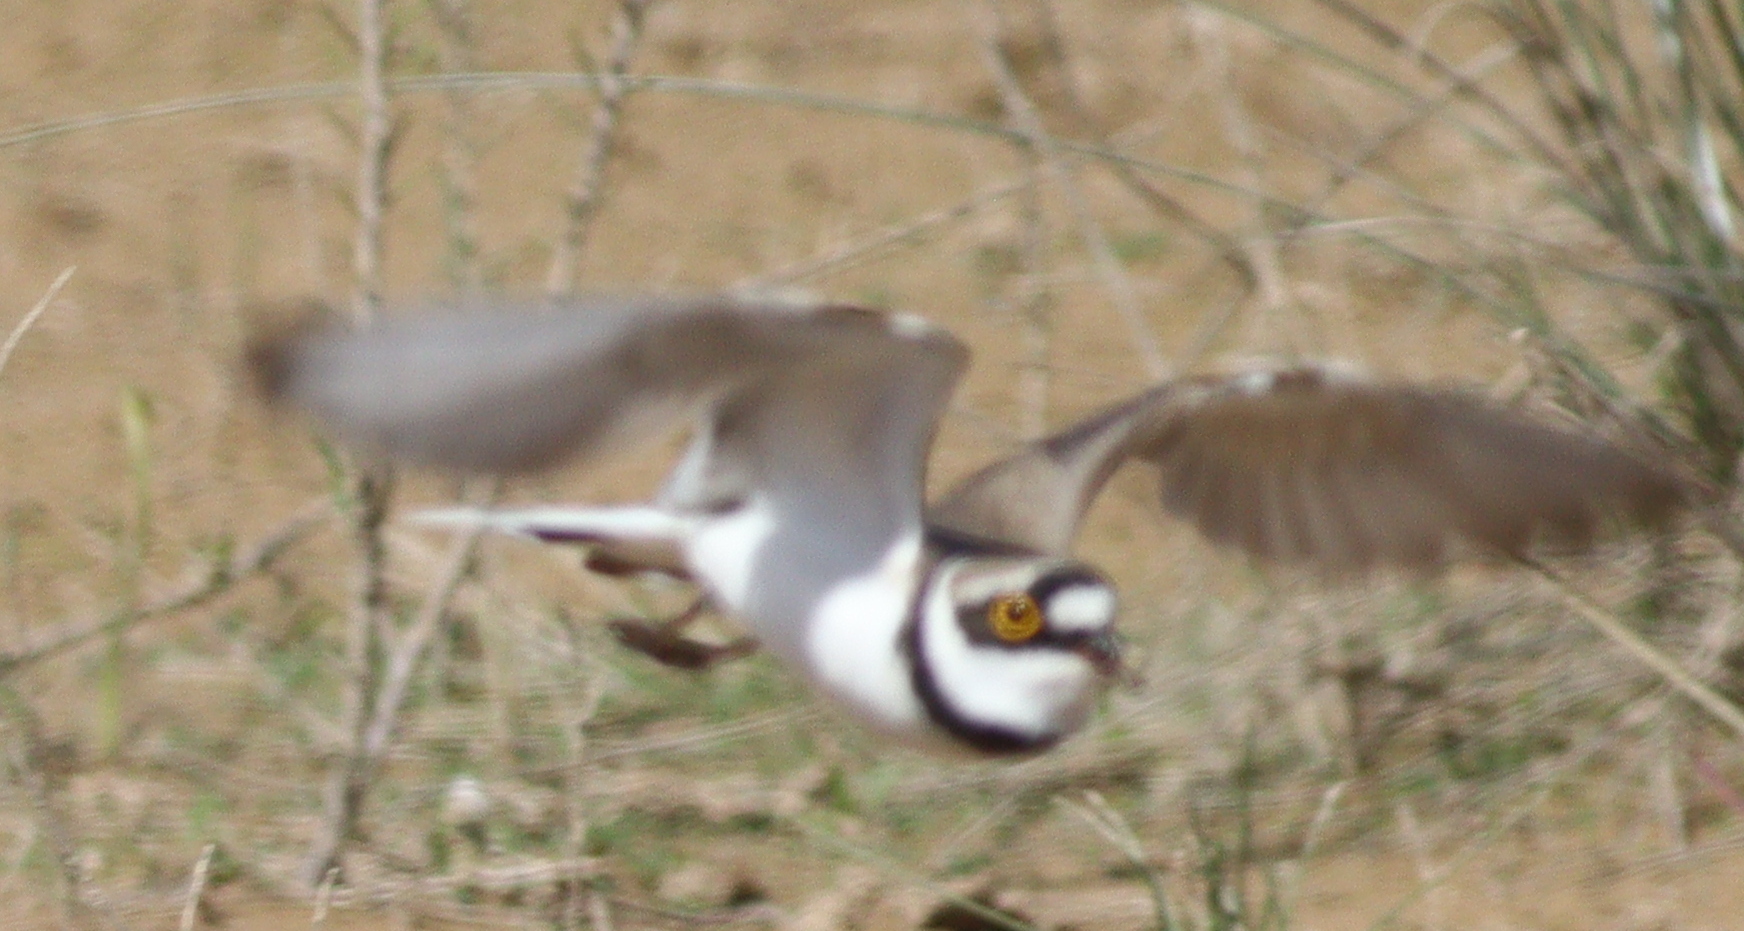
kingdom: Animalia
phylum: Chordata
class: Aves
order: Charadriiformes
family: Charadriidae
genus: Charadrius
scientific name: Charadrius dubius
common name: Little ringed plover
